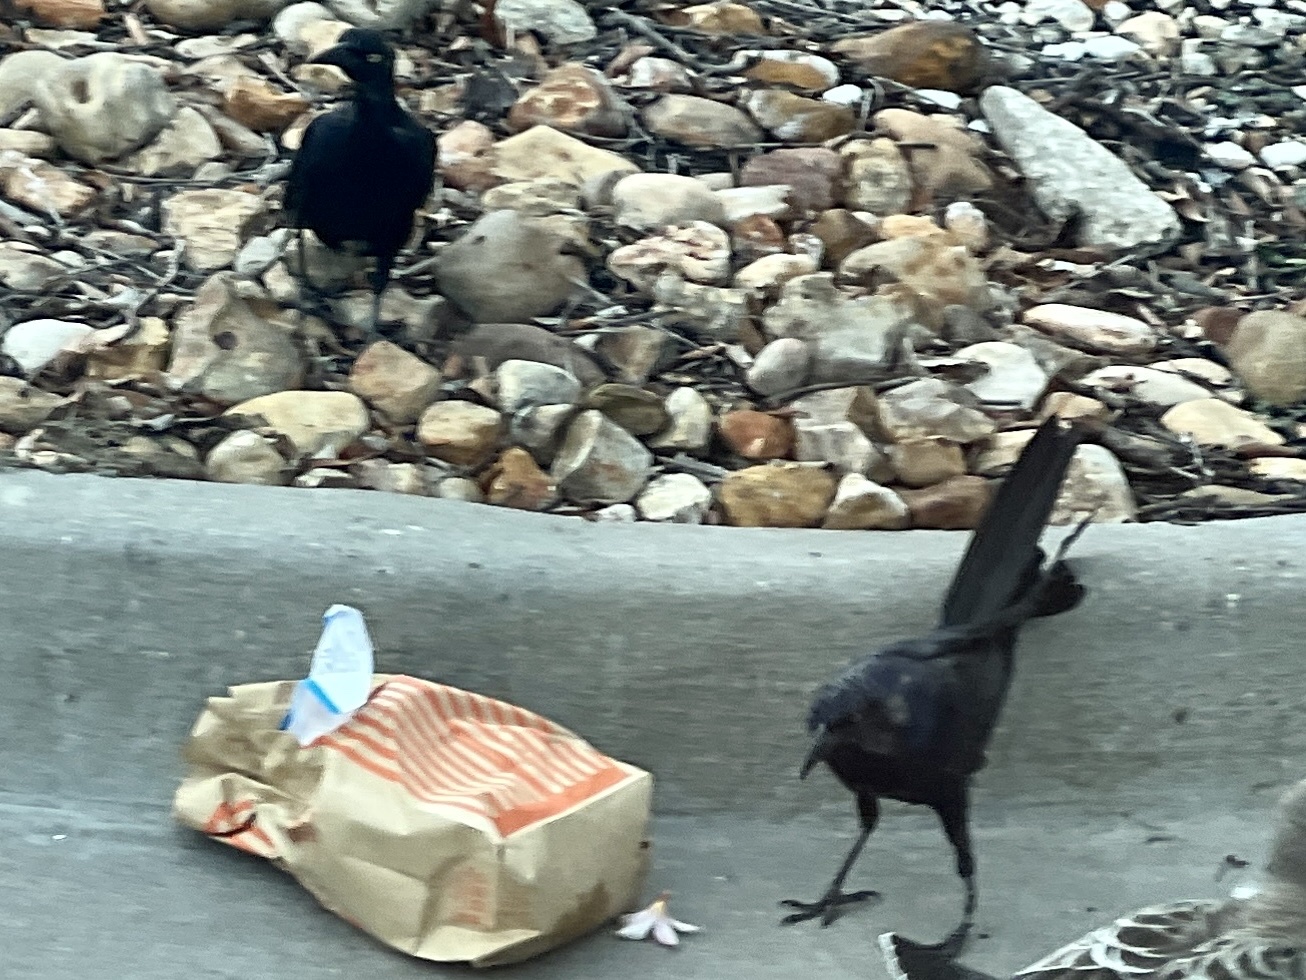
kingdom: Animalia
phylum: Chordata
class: Aves
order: Passeriformes
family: Icteridae
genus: Quiscalus
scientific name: Quiscalus mexicanus
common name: Great-tailed grackle
